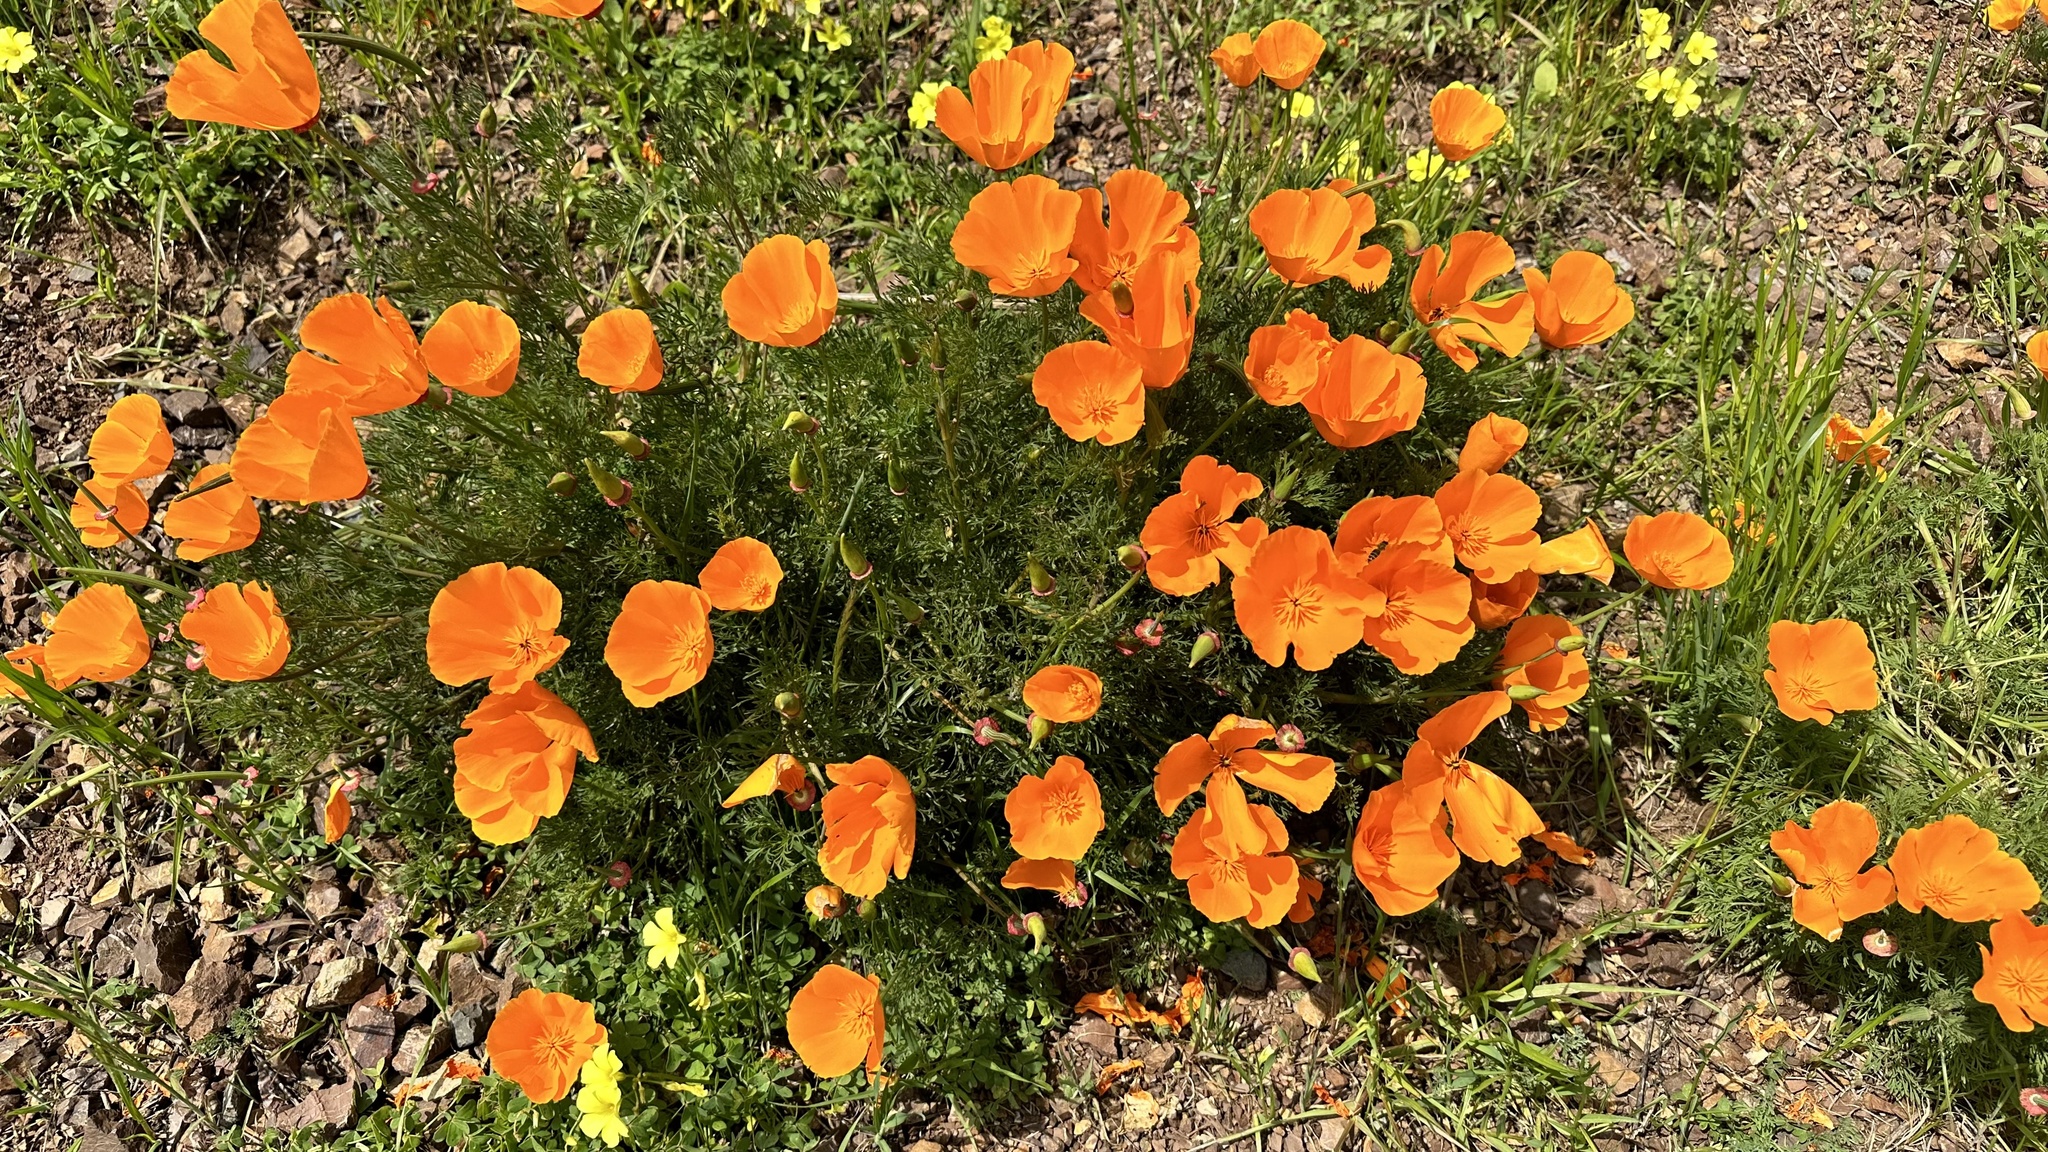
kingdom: Plantae
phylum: Tracheophyta
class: Magnoliopsida
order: Ranunculales
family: Papaveraceae
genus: Eschscholzia
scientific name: Eschscholzia californica
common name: California poppy
